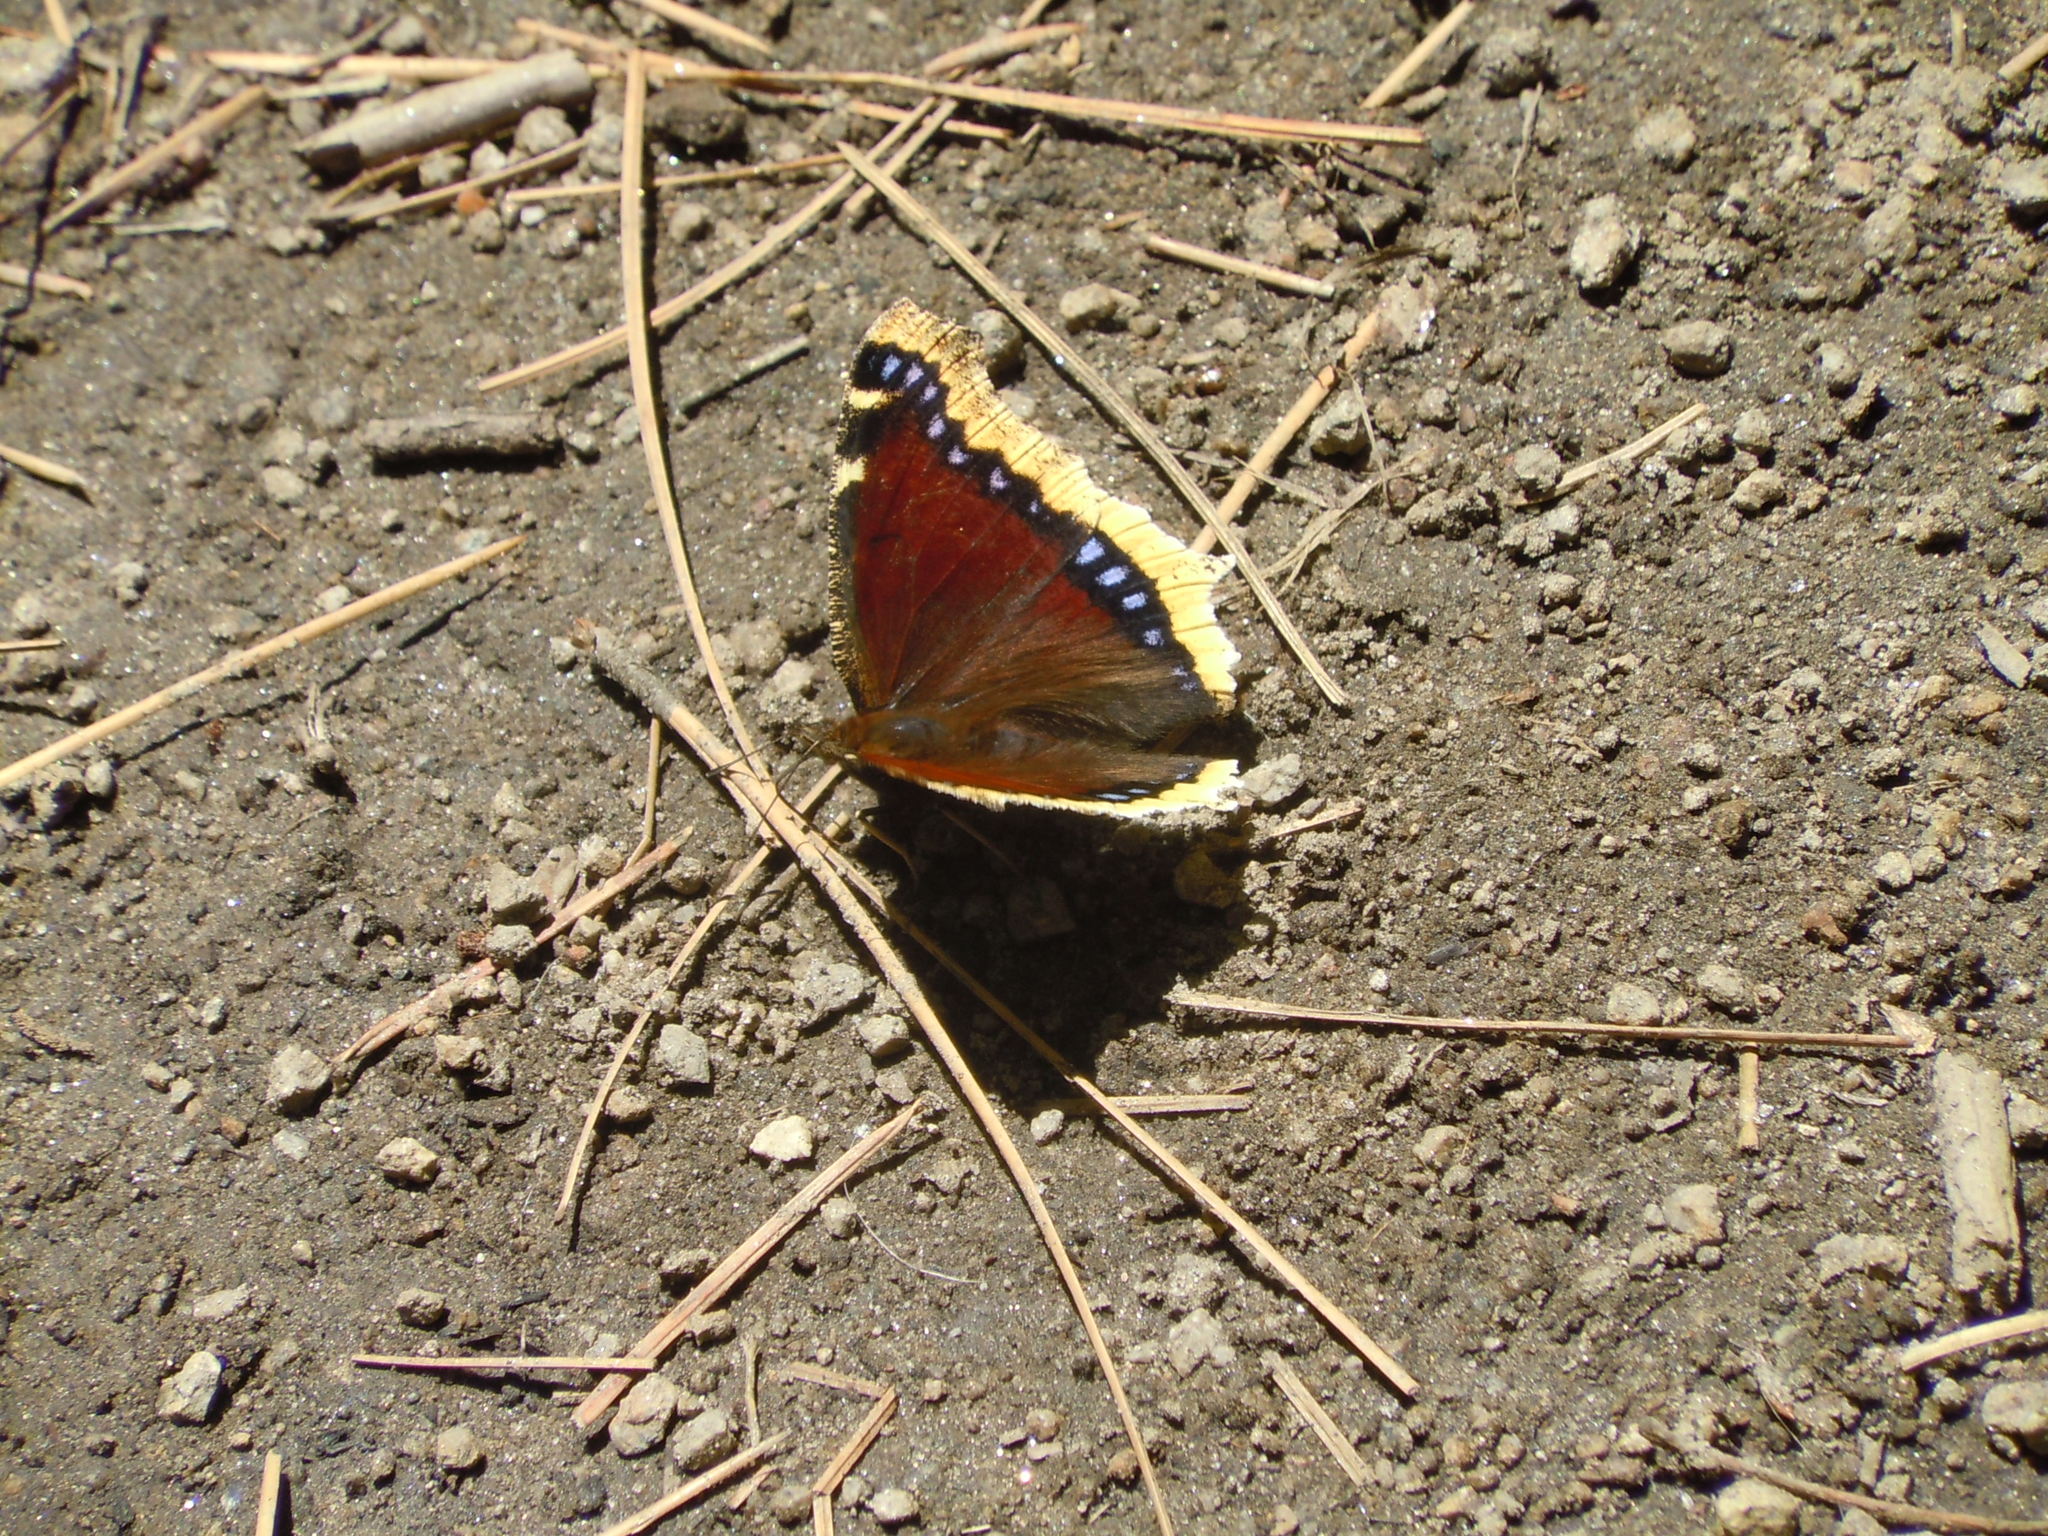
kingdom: Animalia
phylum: Arthropoda
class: Insecta
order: Lepidoptera
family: Nymphalidae
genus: Nymphalis
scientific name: Nymphalis antiopa
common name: Camberwell beauty
